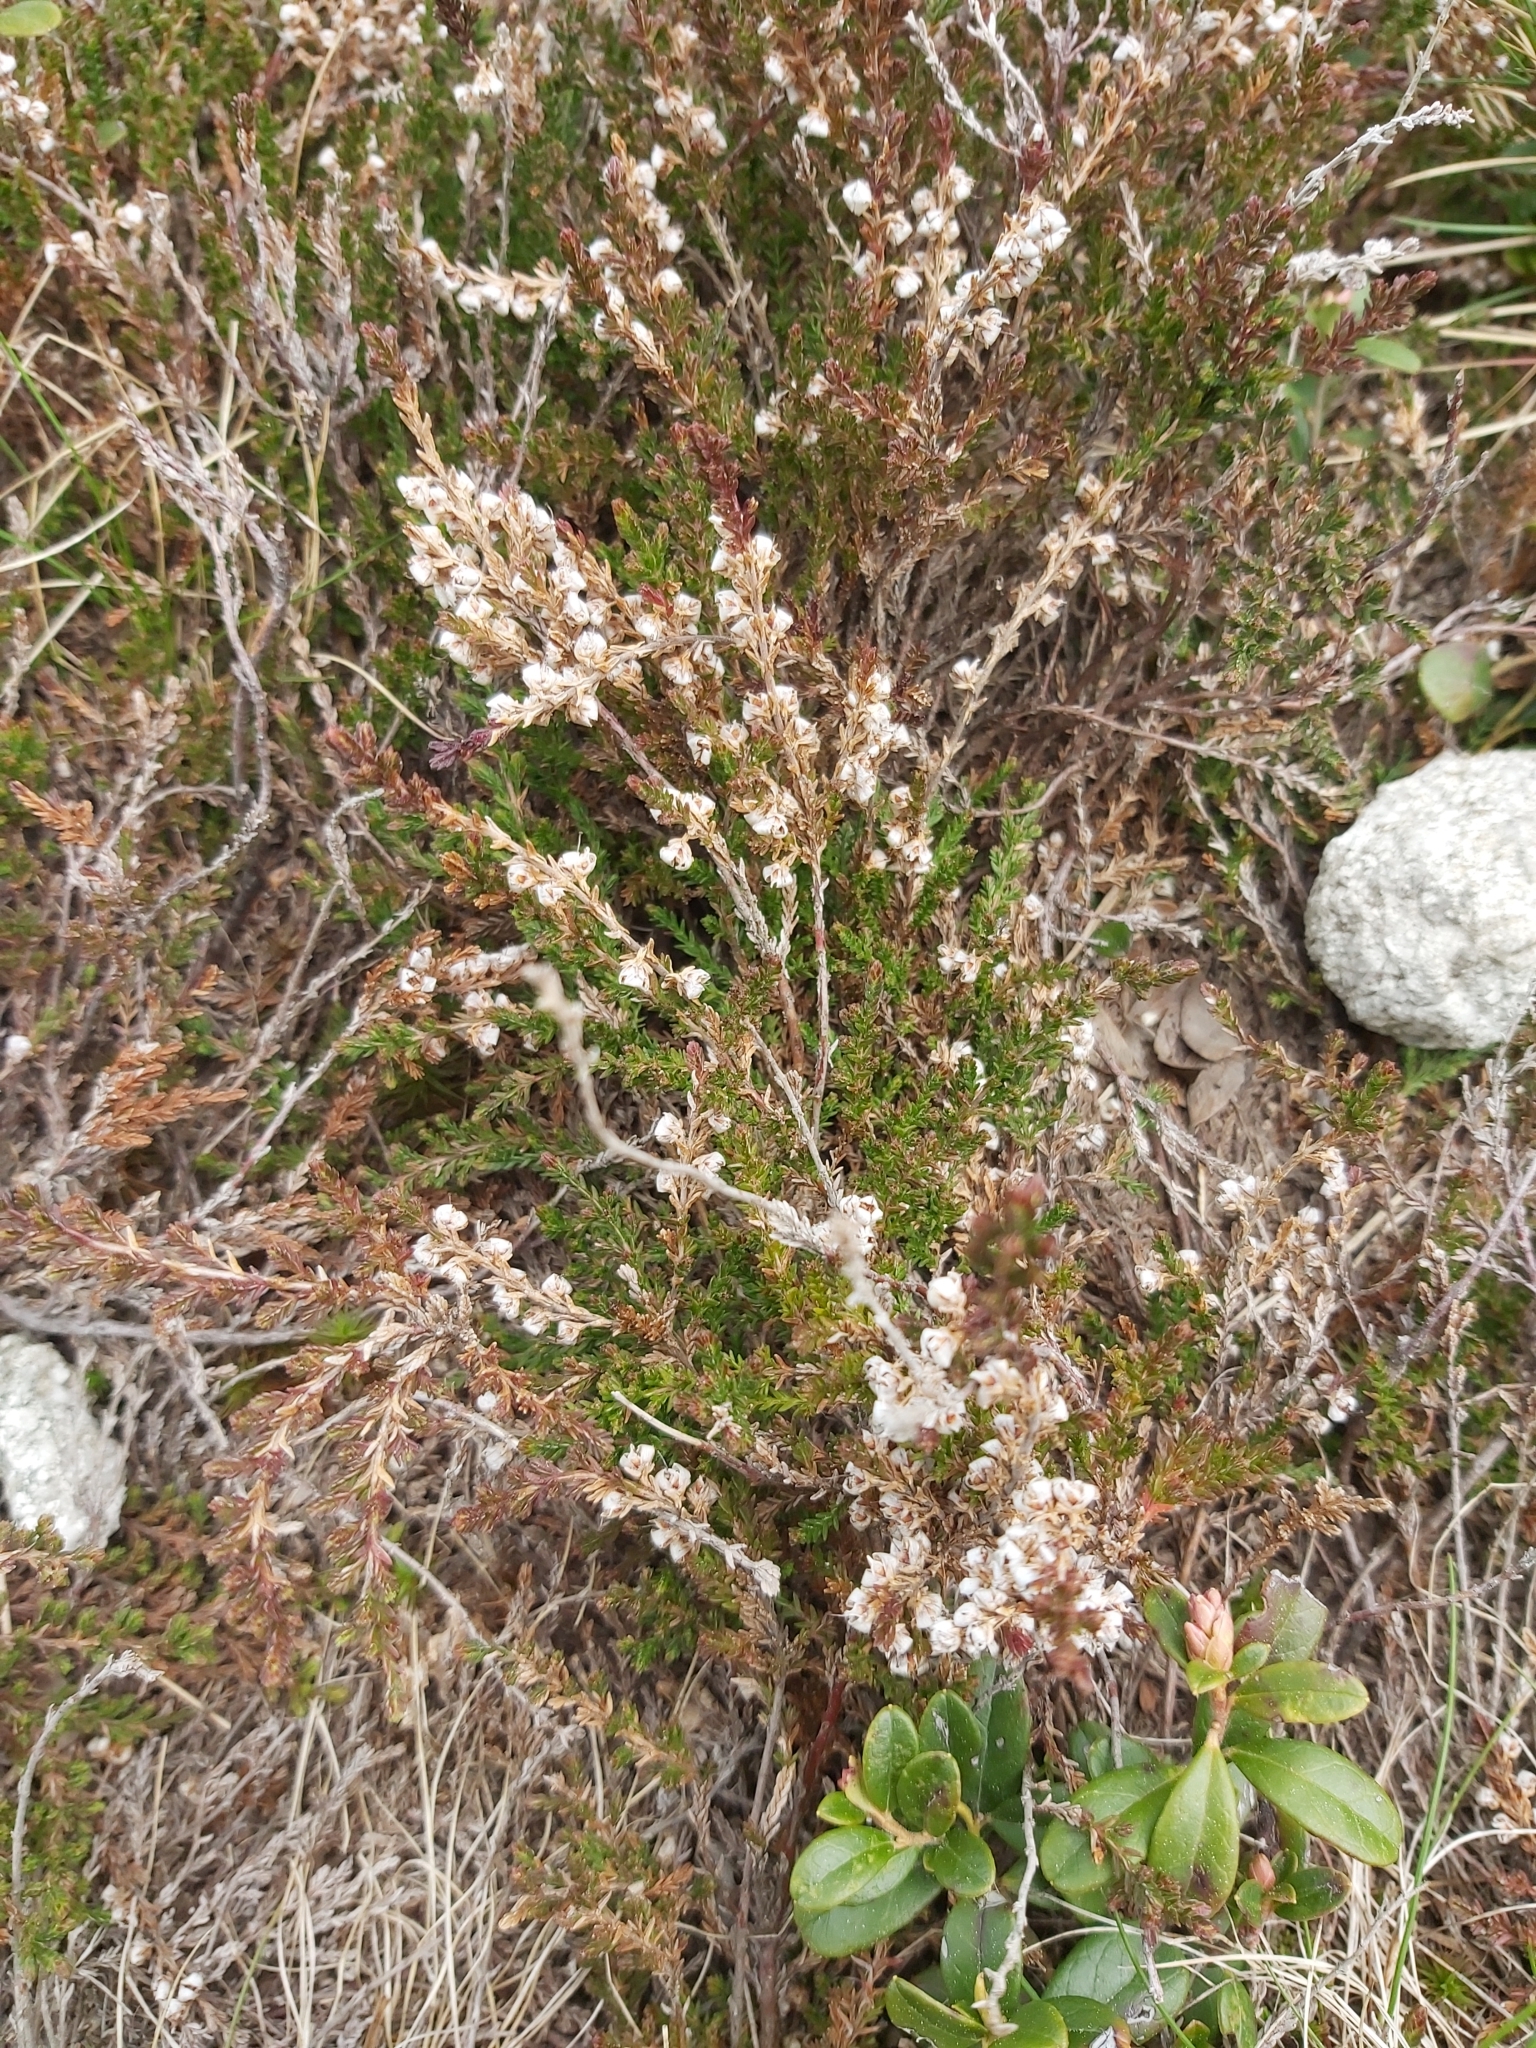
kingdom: Plantae
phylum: Tracheophyta
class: Magnoliopsida
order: Ericales
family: Ericaceae
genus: Calluna
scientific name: Calluna vulgaris
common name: Heather
